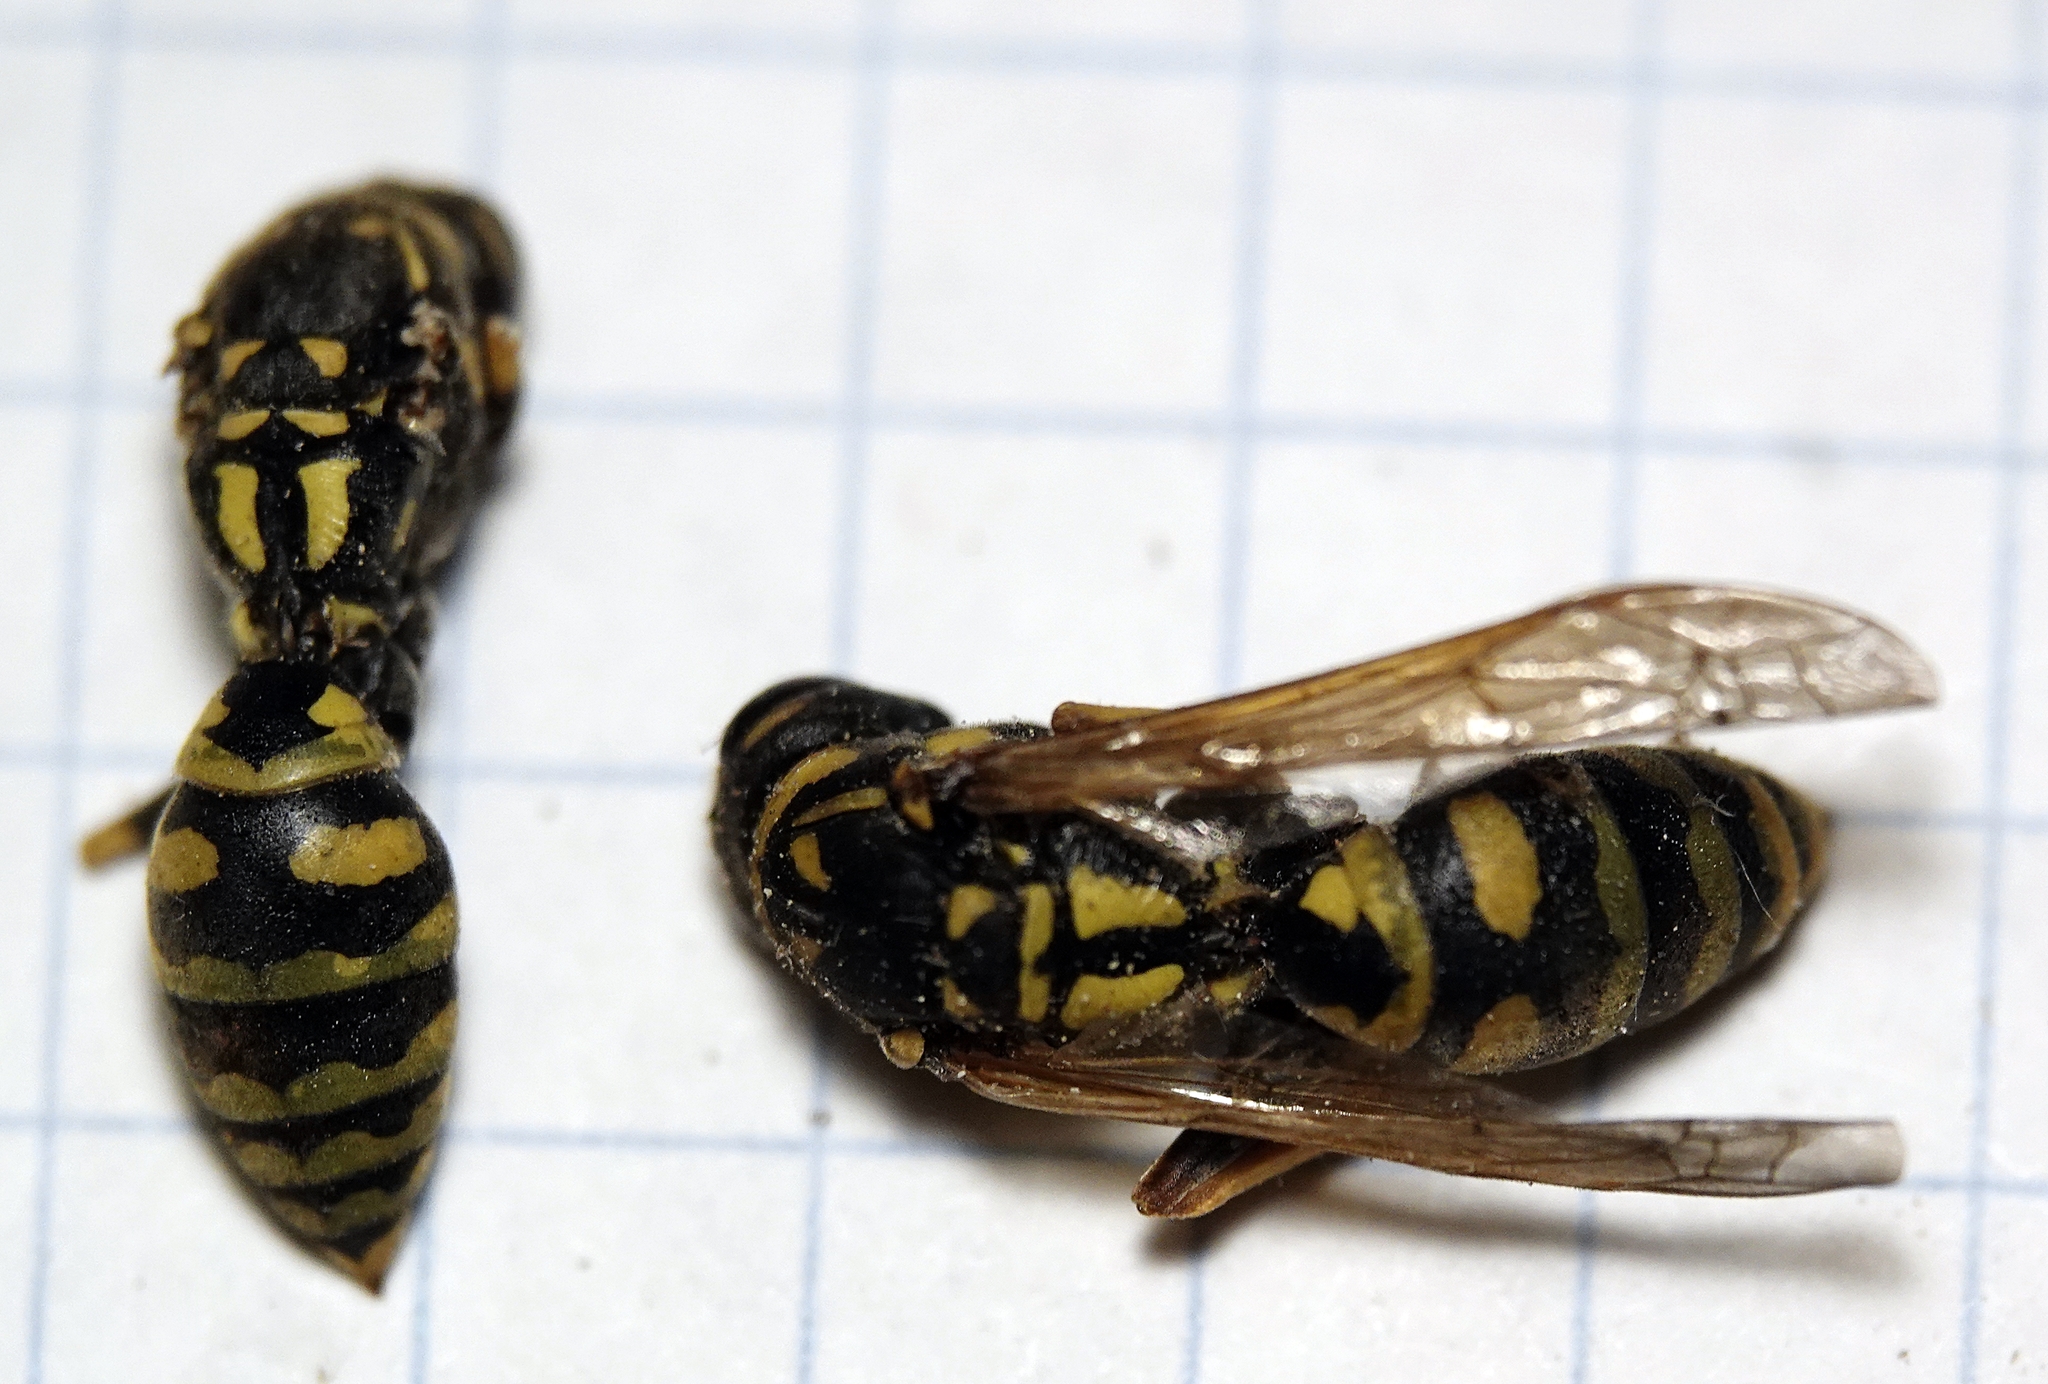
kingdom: Animalia
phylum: Arthropoda
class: Insecta
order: Hymenoptera
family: Eumenidae
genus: Polistes
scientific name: Polistes dominula
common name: Paper wasp
